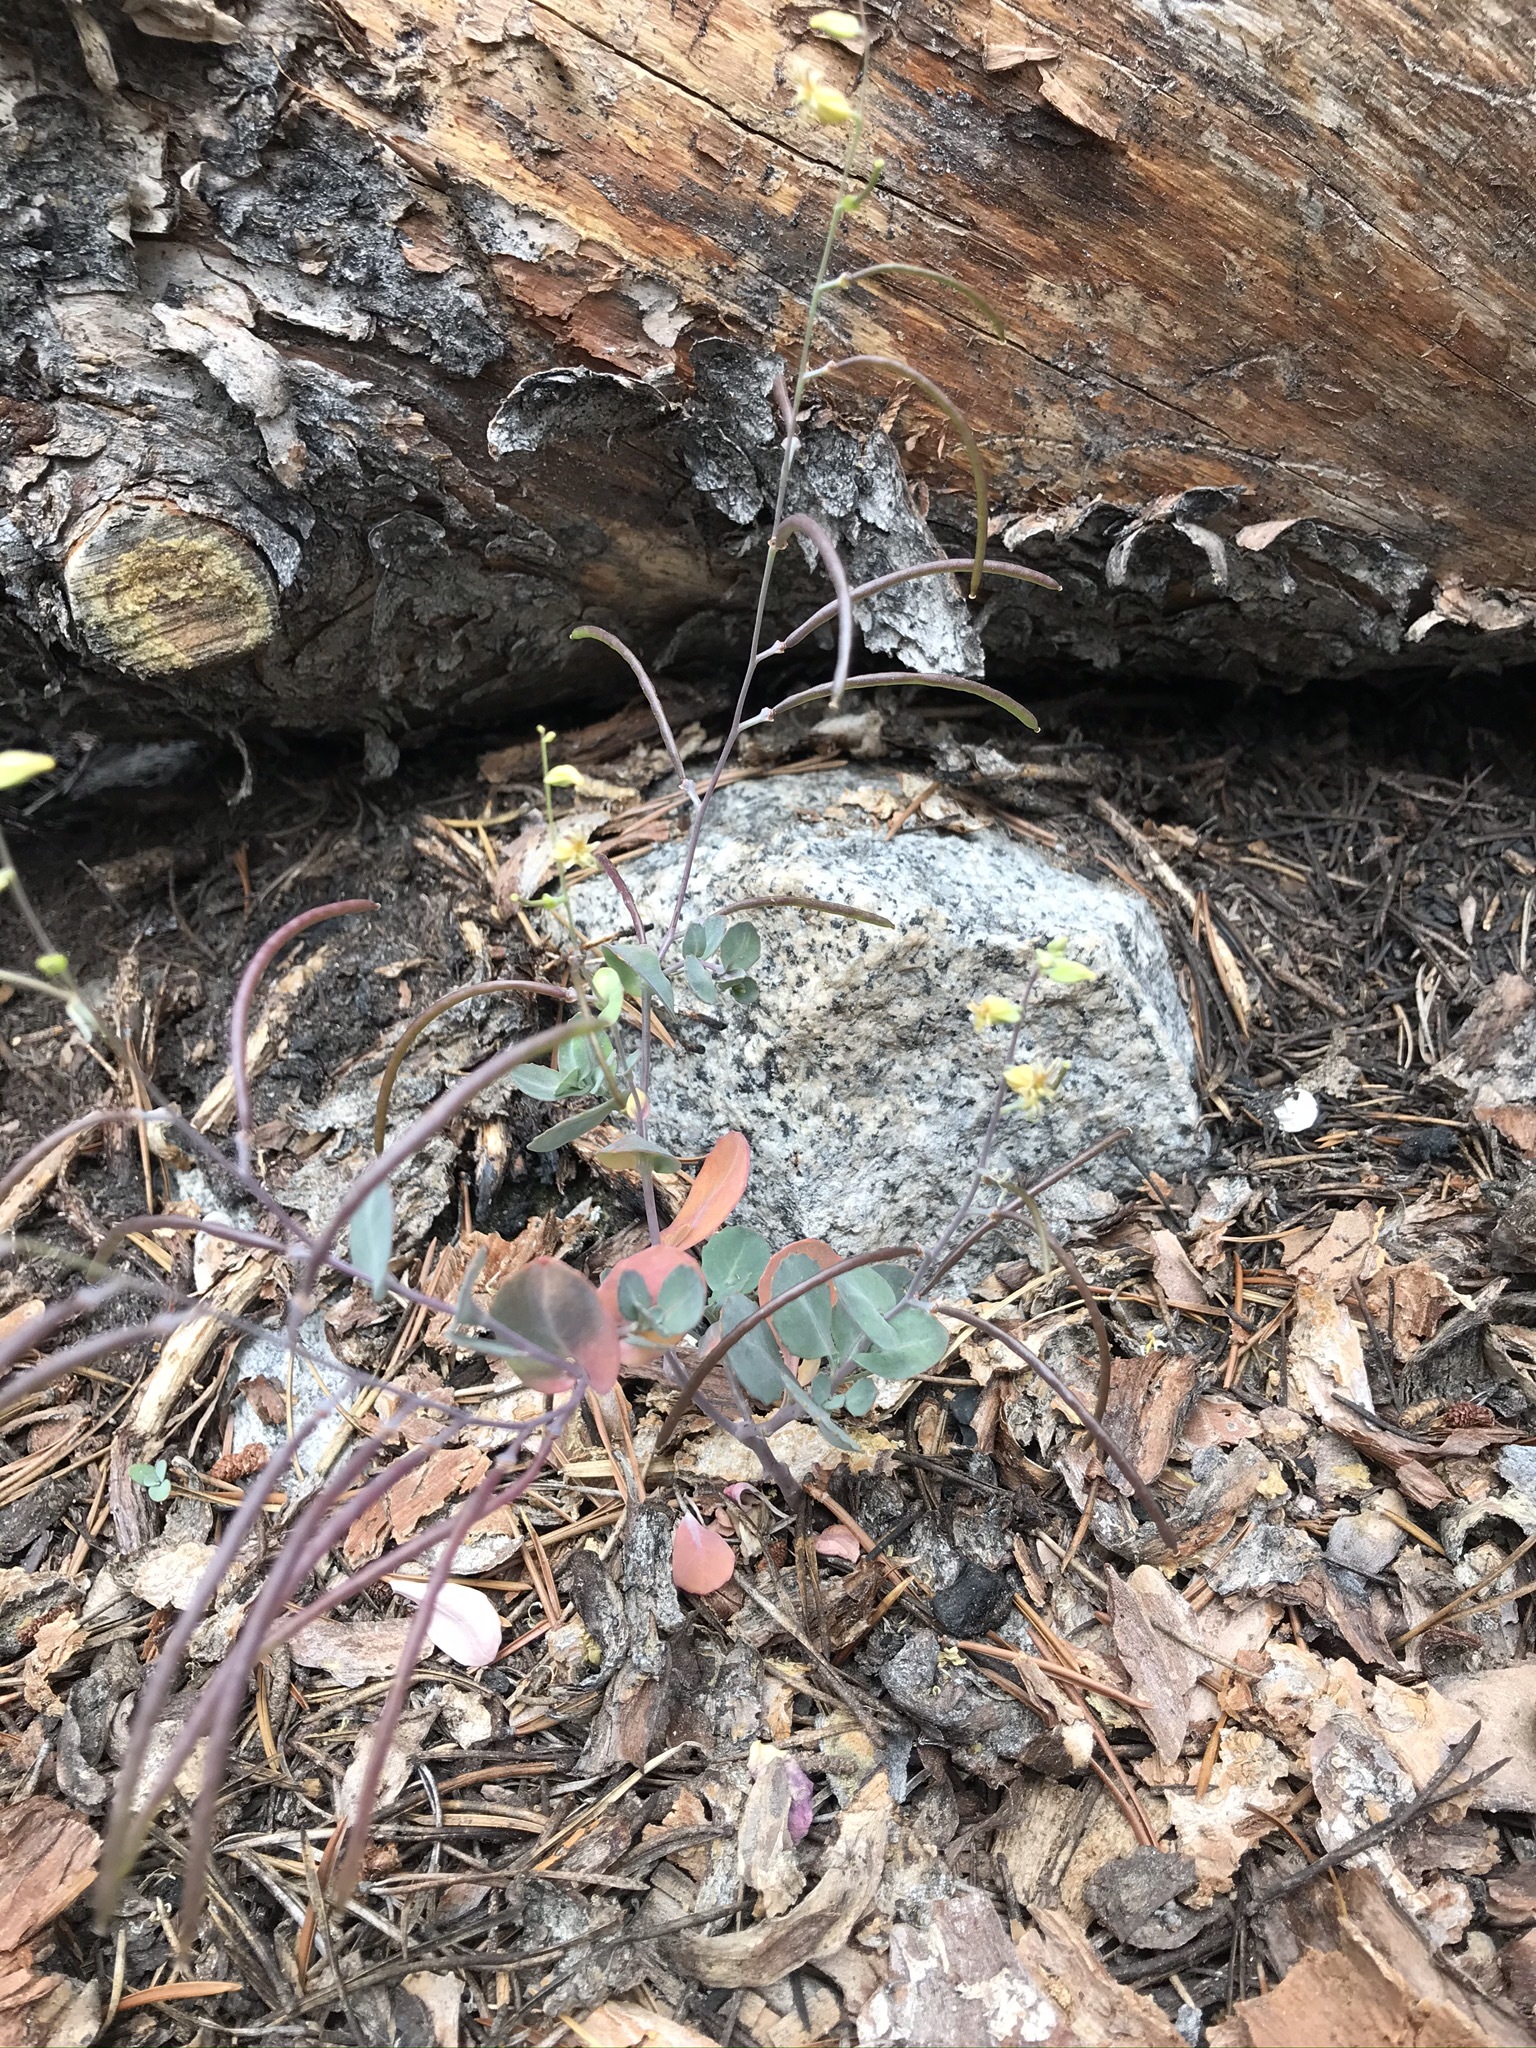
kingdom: Plantae
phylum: Tracheophyta
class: Magnoliopsida
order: Brassicales
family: Brassicaceae
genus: Streptanthus
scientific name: Streptanthus tortuosus
